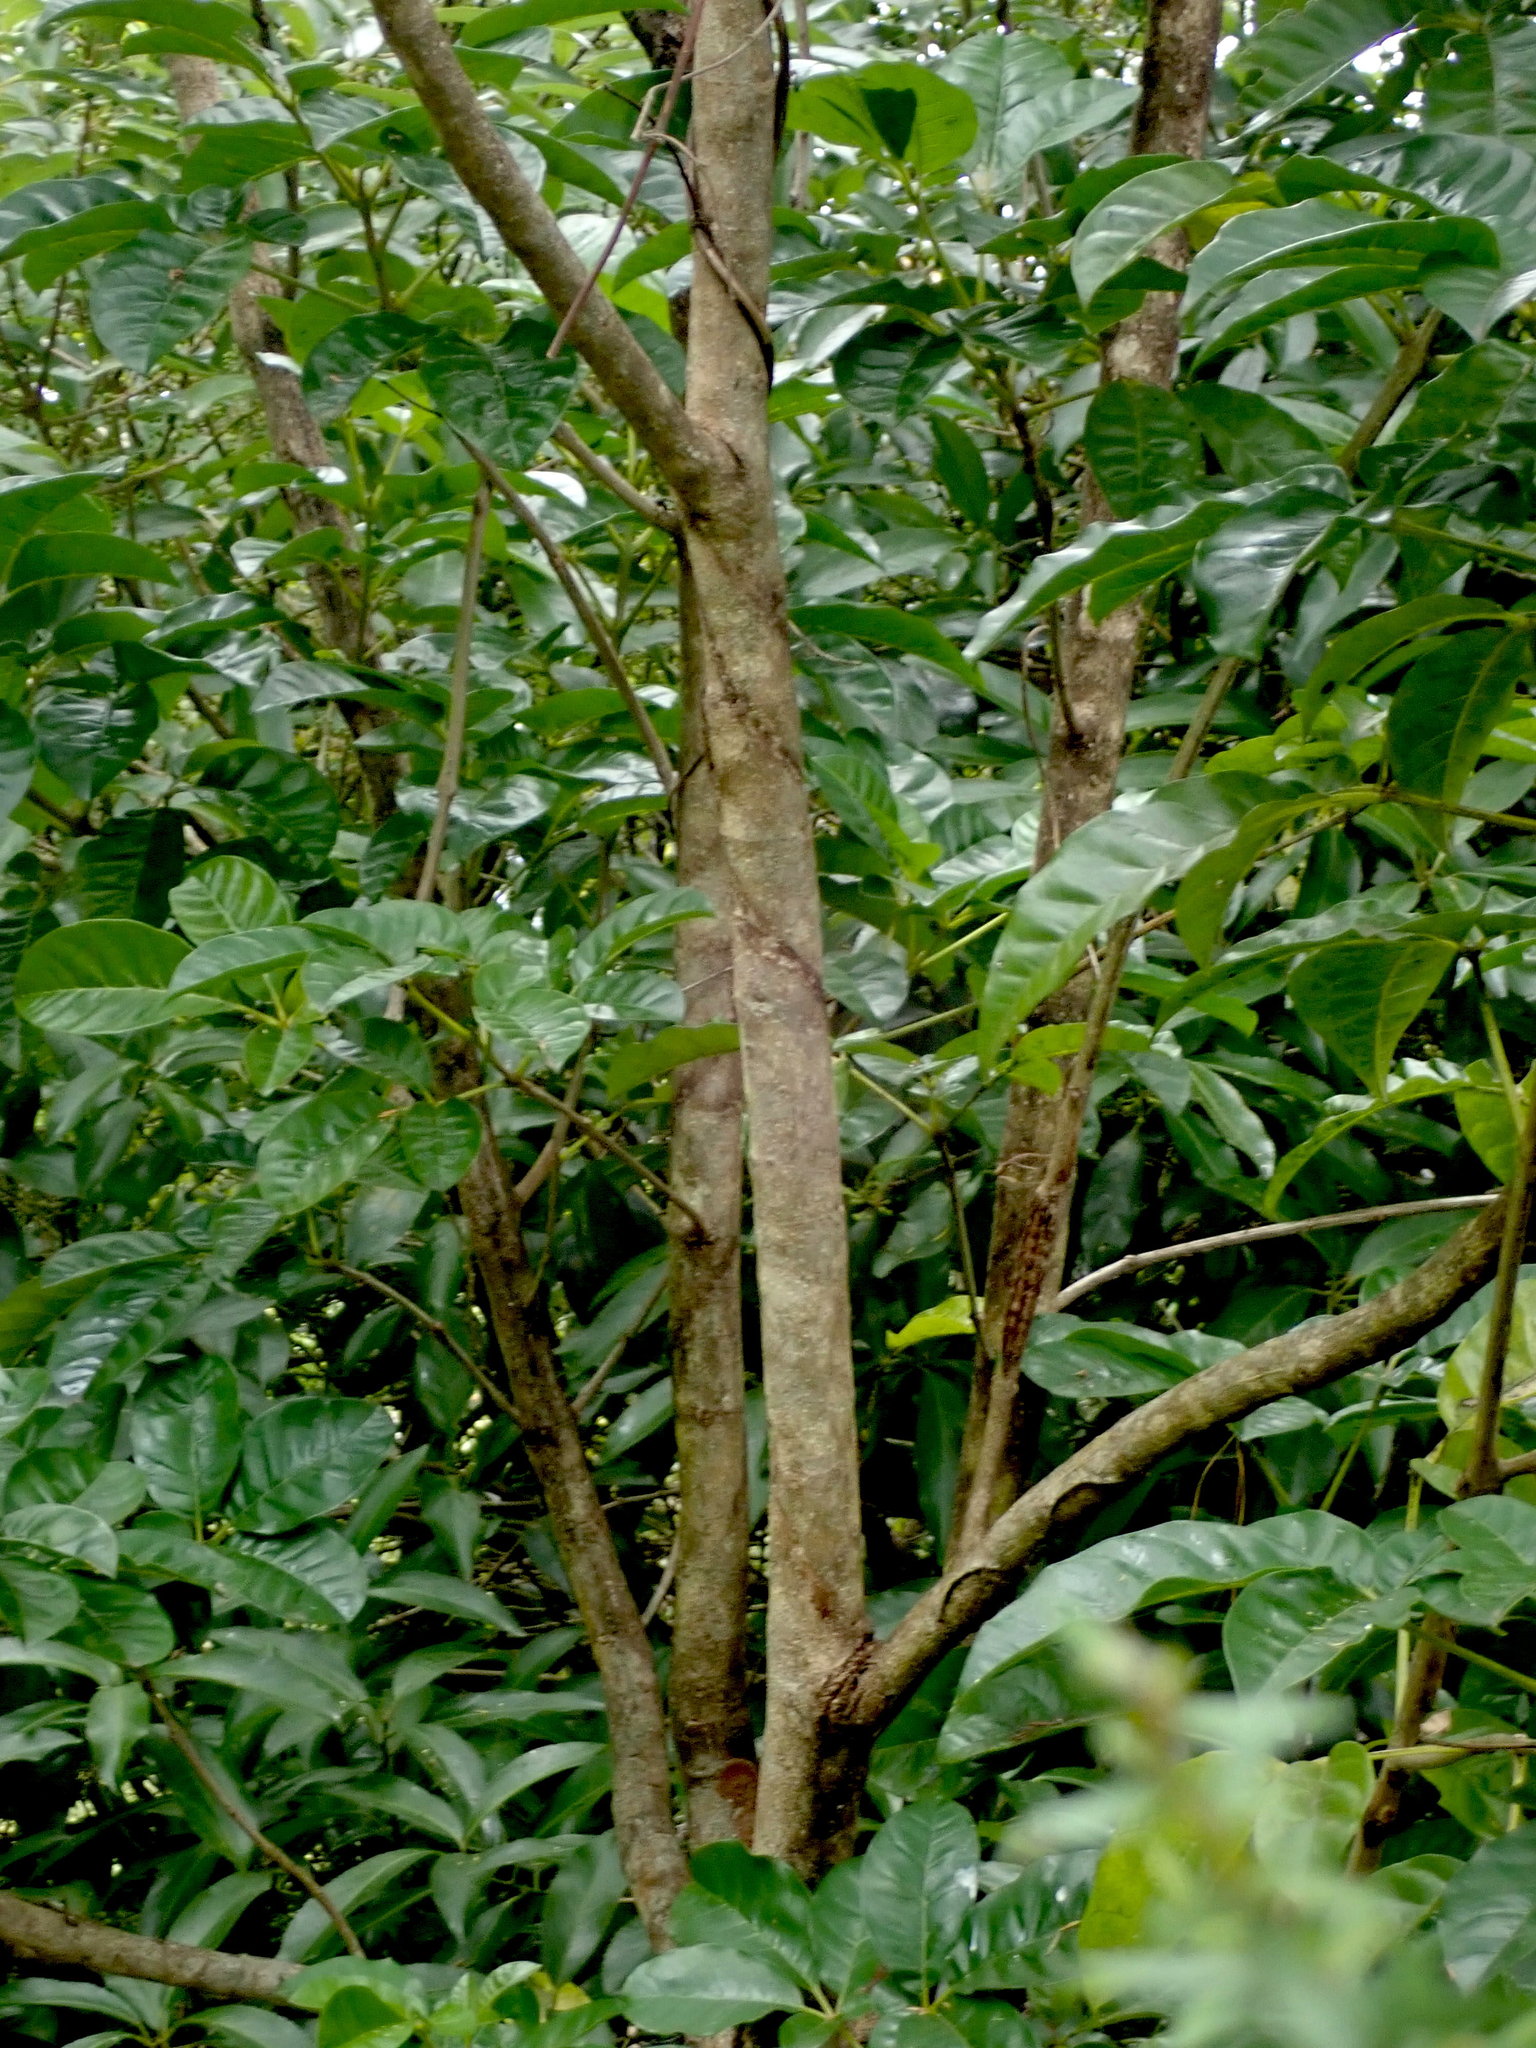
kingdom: Plantae
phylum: Tracheophyta
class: Magnoliopsida
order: Lamiales
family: Lamiaceae
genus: Vitex
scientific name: Vitex lucens
